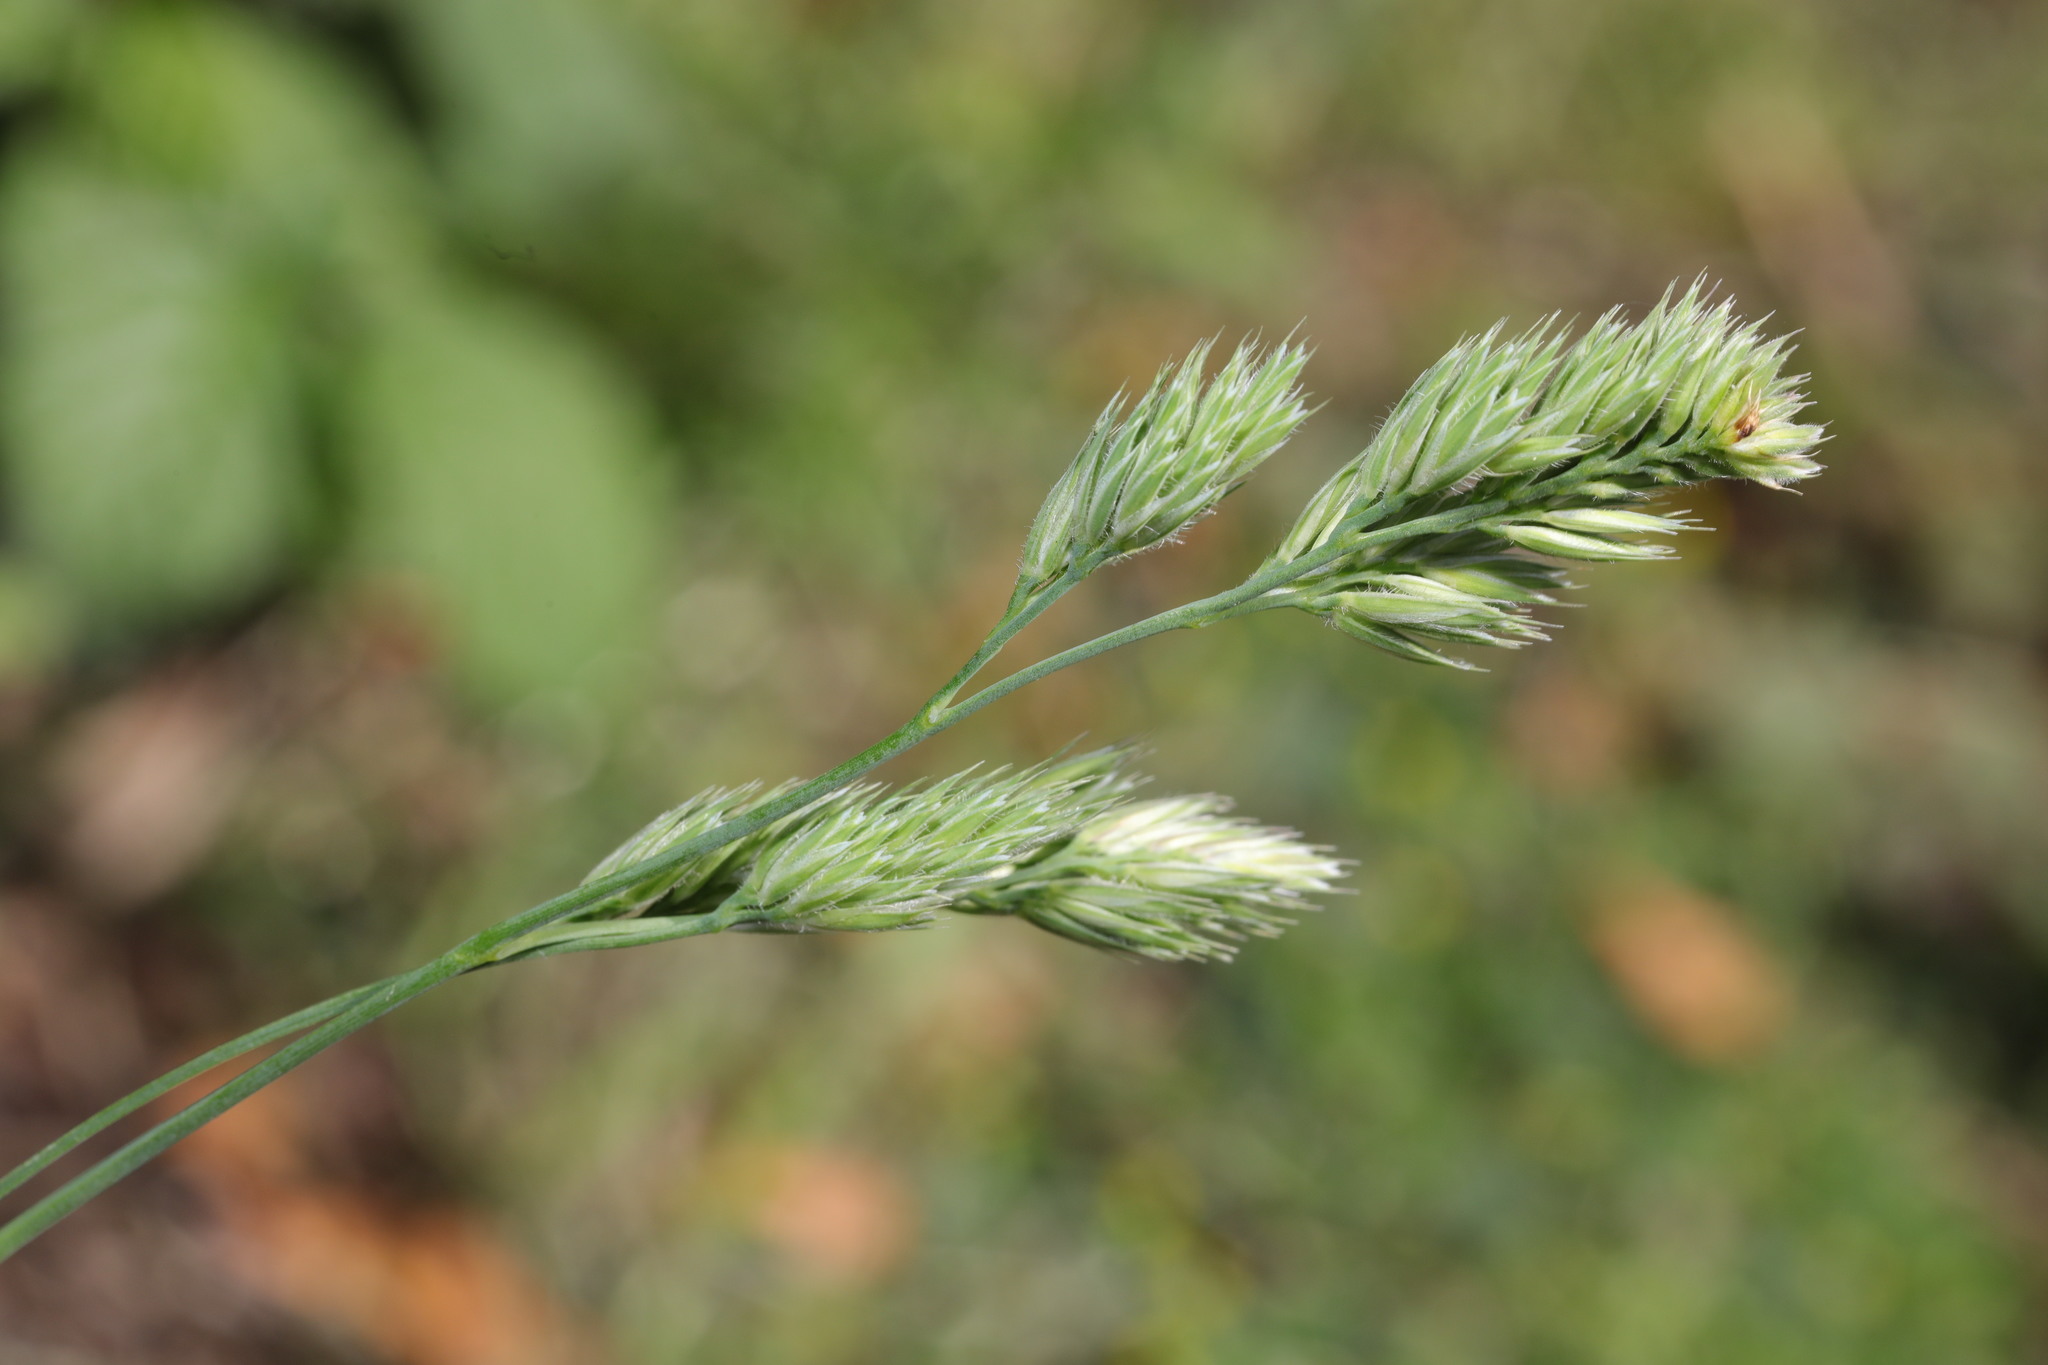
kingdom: Plantae
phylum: Tracheophyta
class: Liliopsida
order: Poales
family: Poaceae
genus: Dactylis
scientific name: Dactylis glomerata
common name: Orchardgrass
